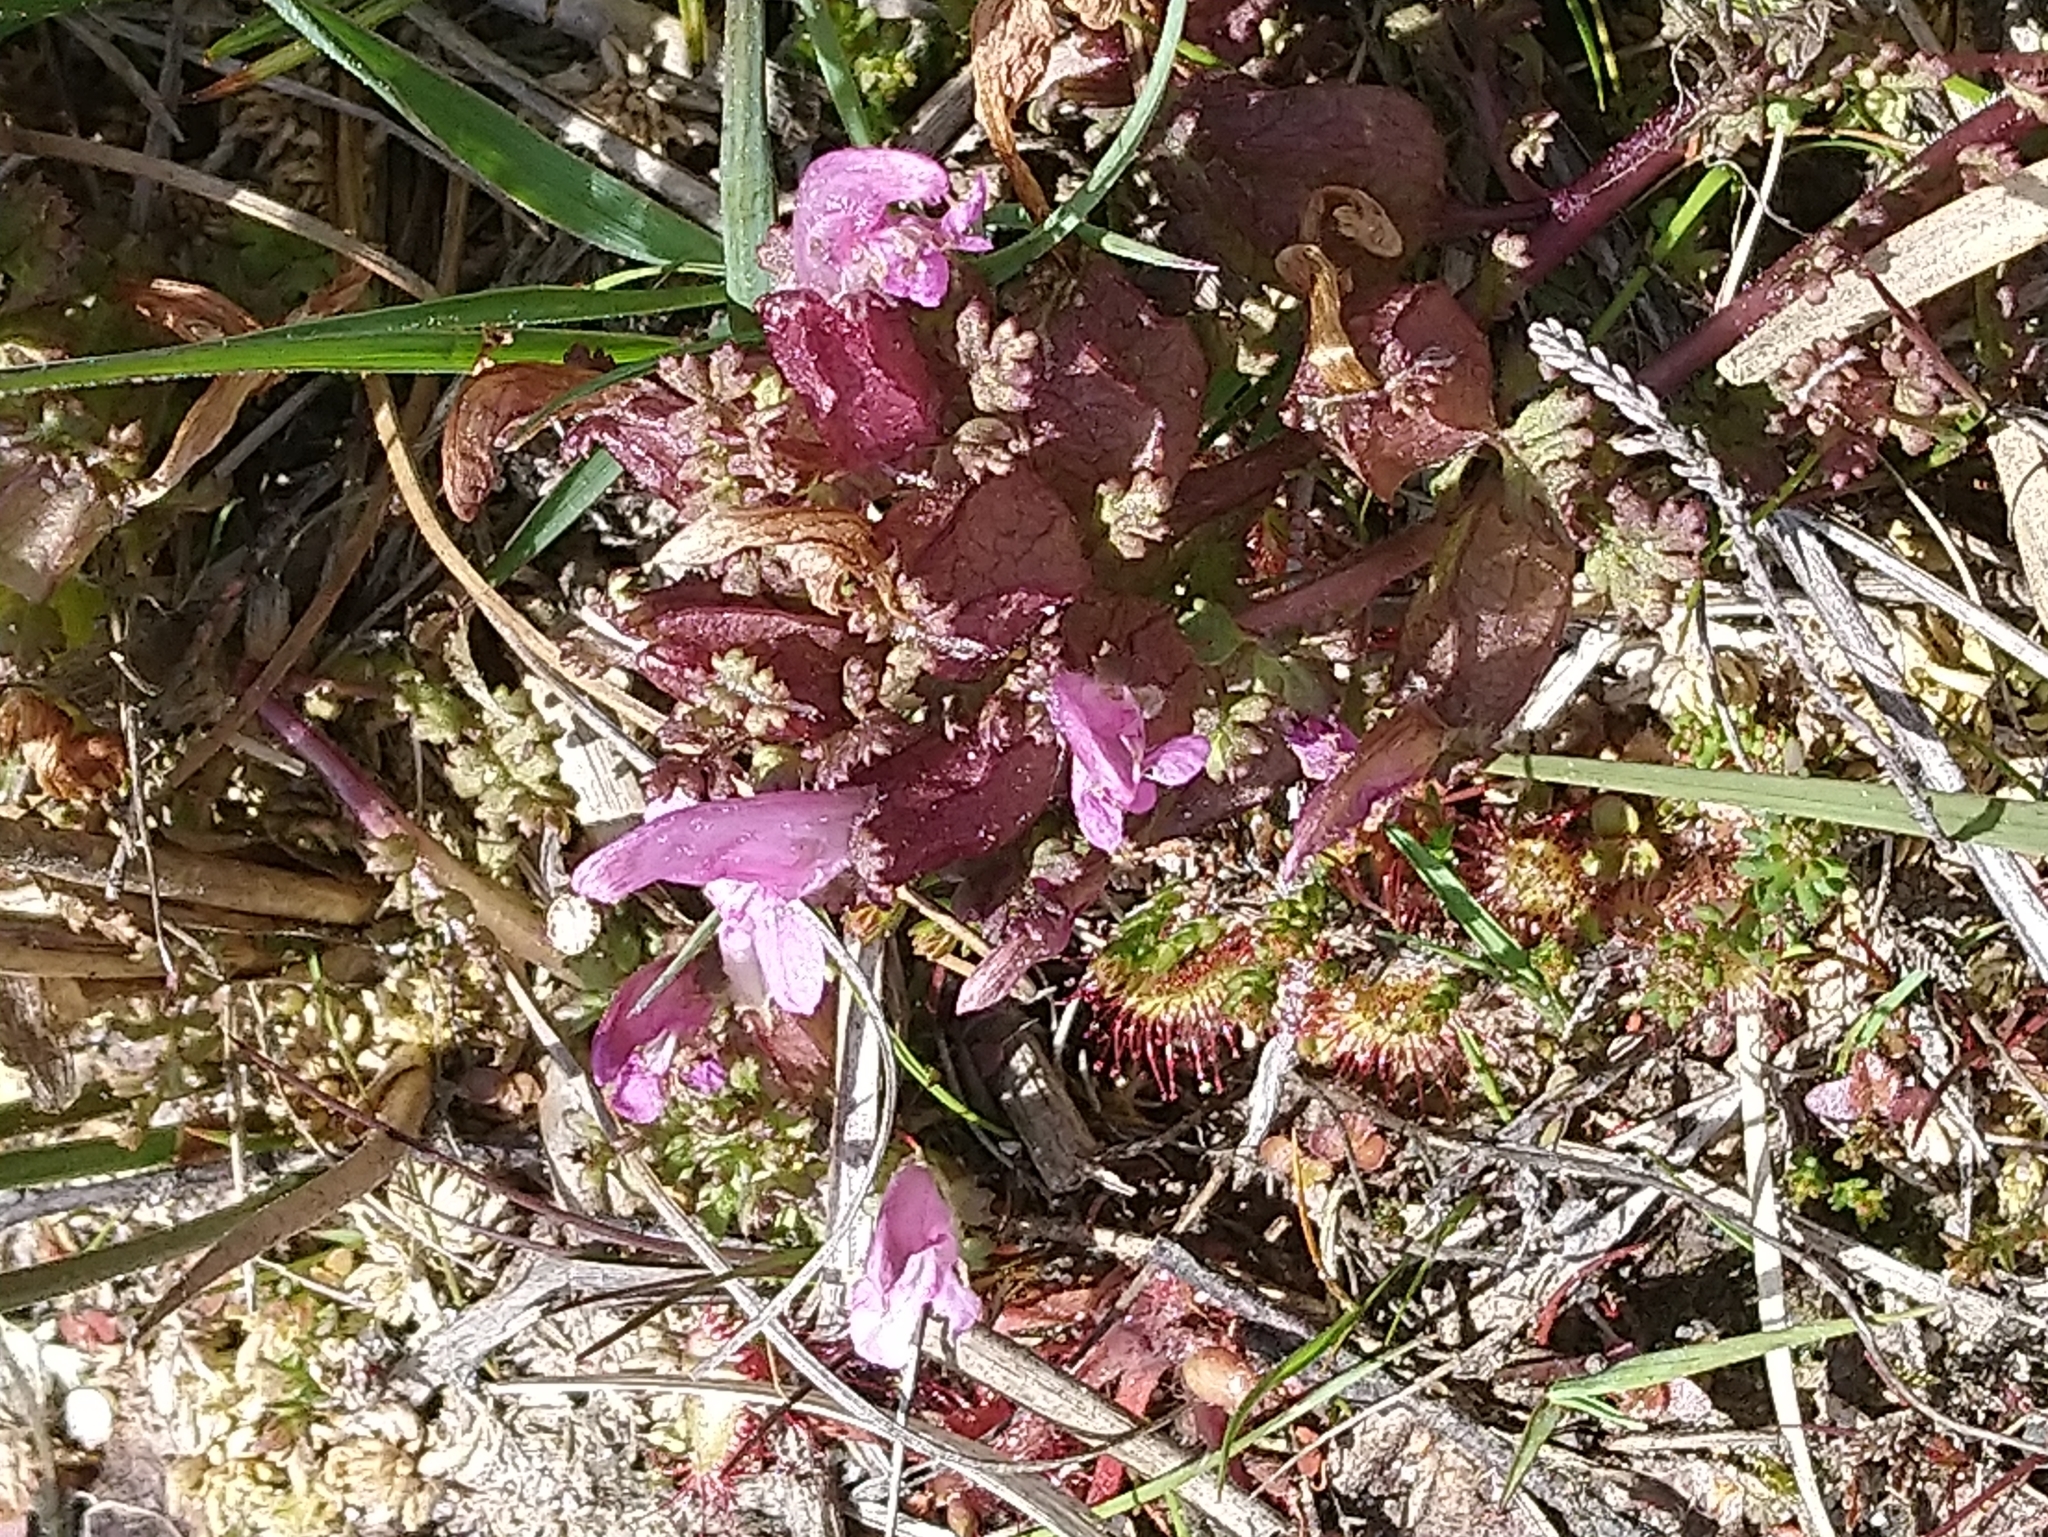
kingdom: Plantae
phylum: Tracheophyta
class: Magnoliopsida
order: Lamiales
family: Orobanchaceae
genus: Pedicularis
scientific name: Pedicularis sylvatica
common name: Lousewort
